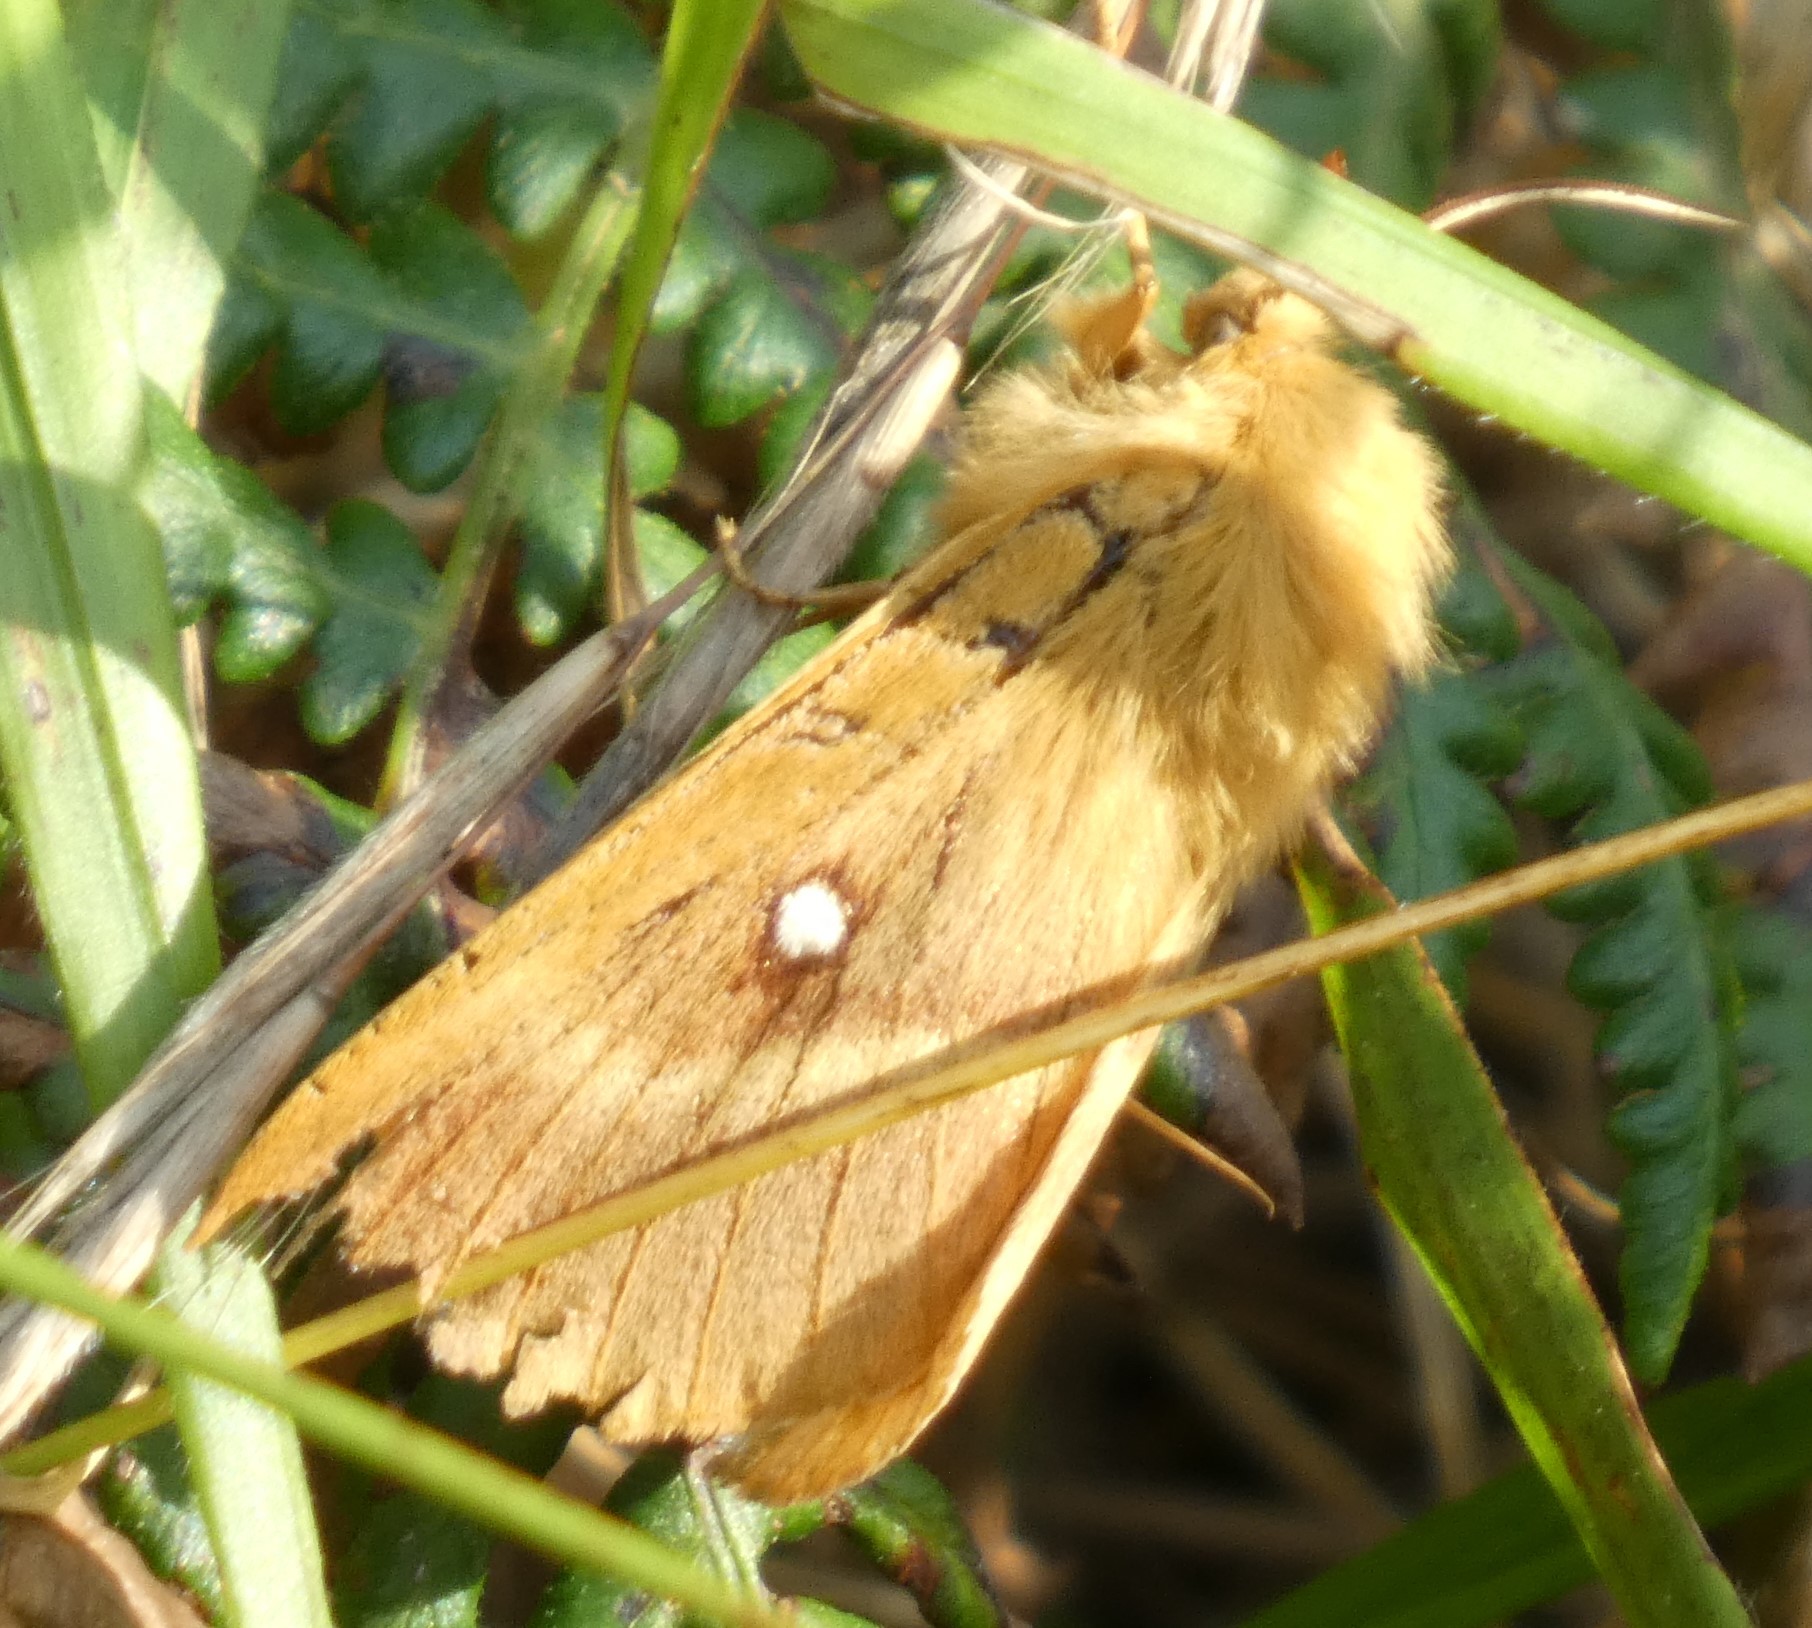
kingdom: Animalia
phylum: Arthropoda
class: Insecta
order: Lepidoptera
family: Lasiocampidae
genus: Lasiocampa
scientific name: Lasiocampa quercus
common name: Oak eggar
